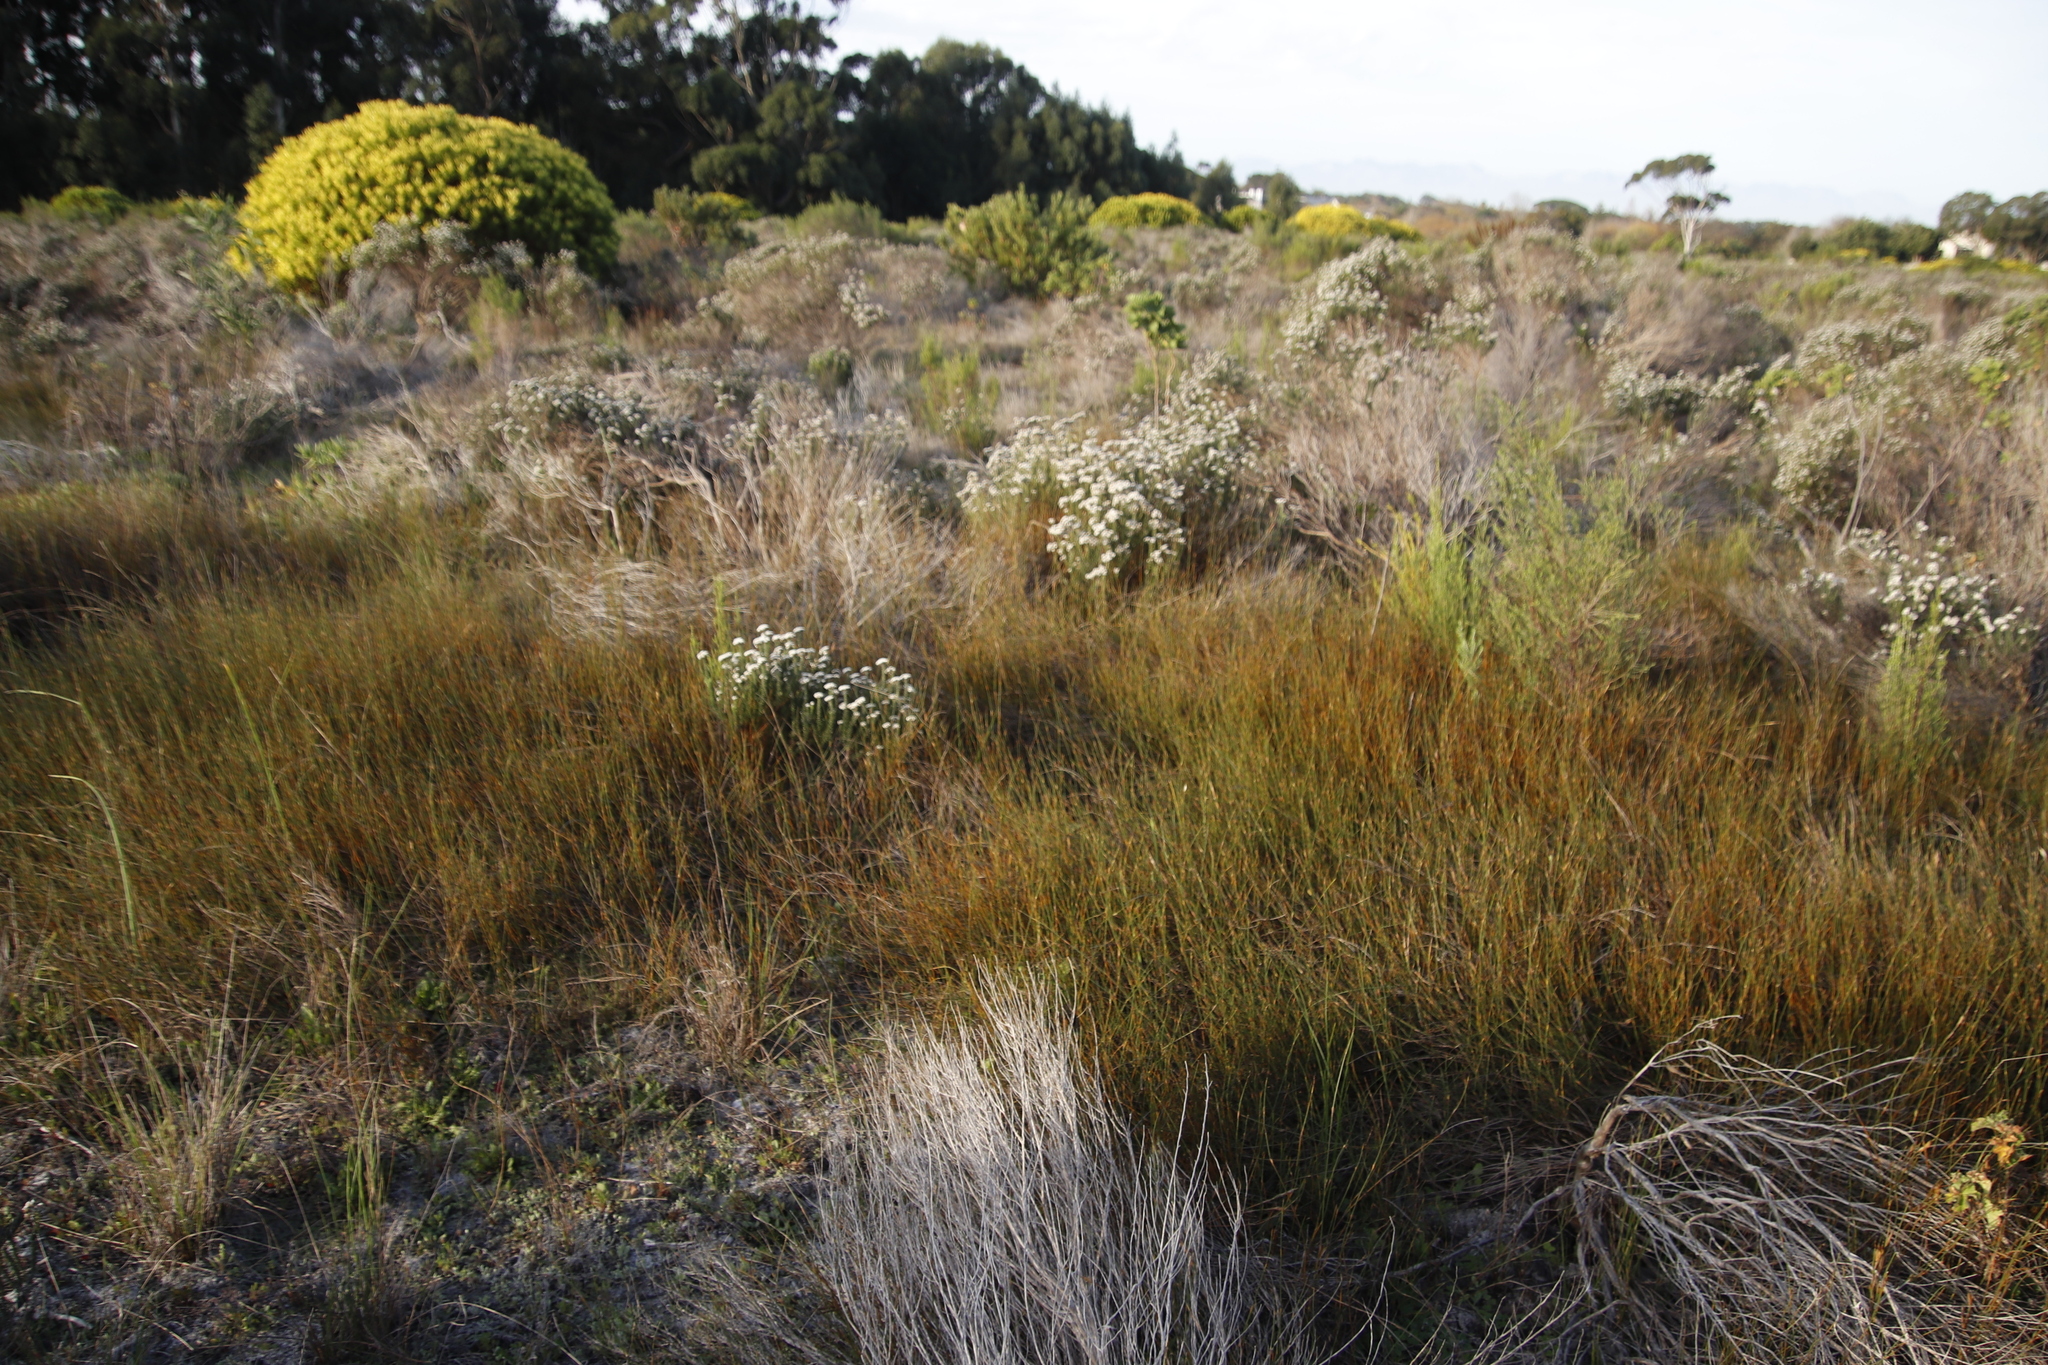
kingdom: Plantae
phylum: Tracheophyta
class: Liliopsida
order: Poales
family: Restionaceae
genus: Willdenowia
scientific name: Willdenowia sulcata
